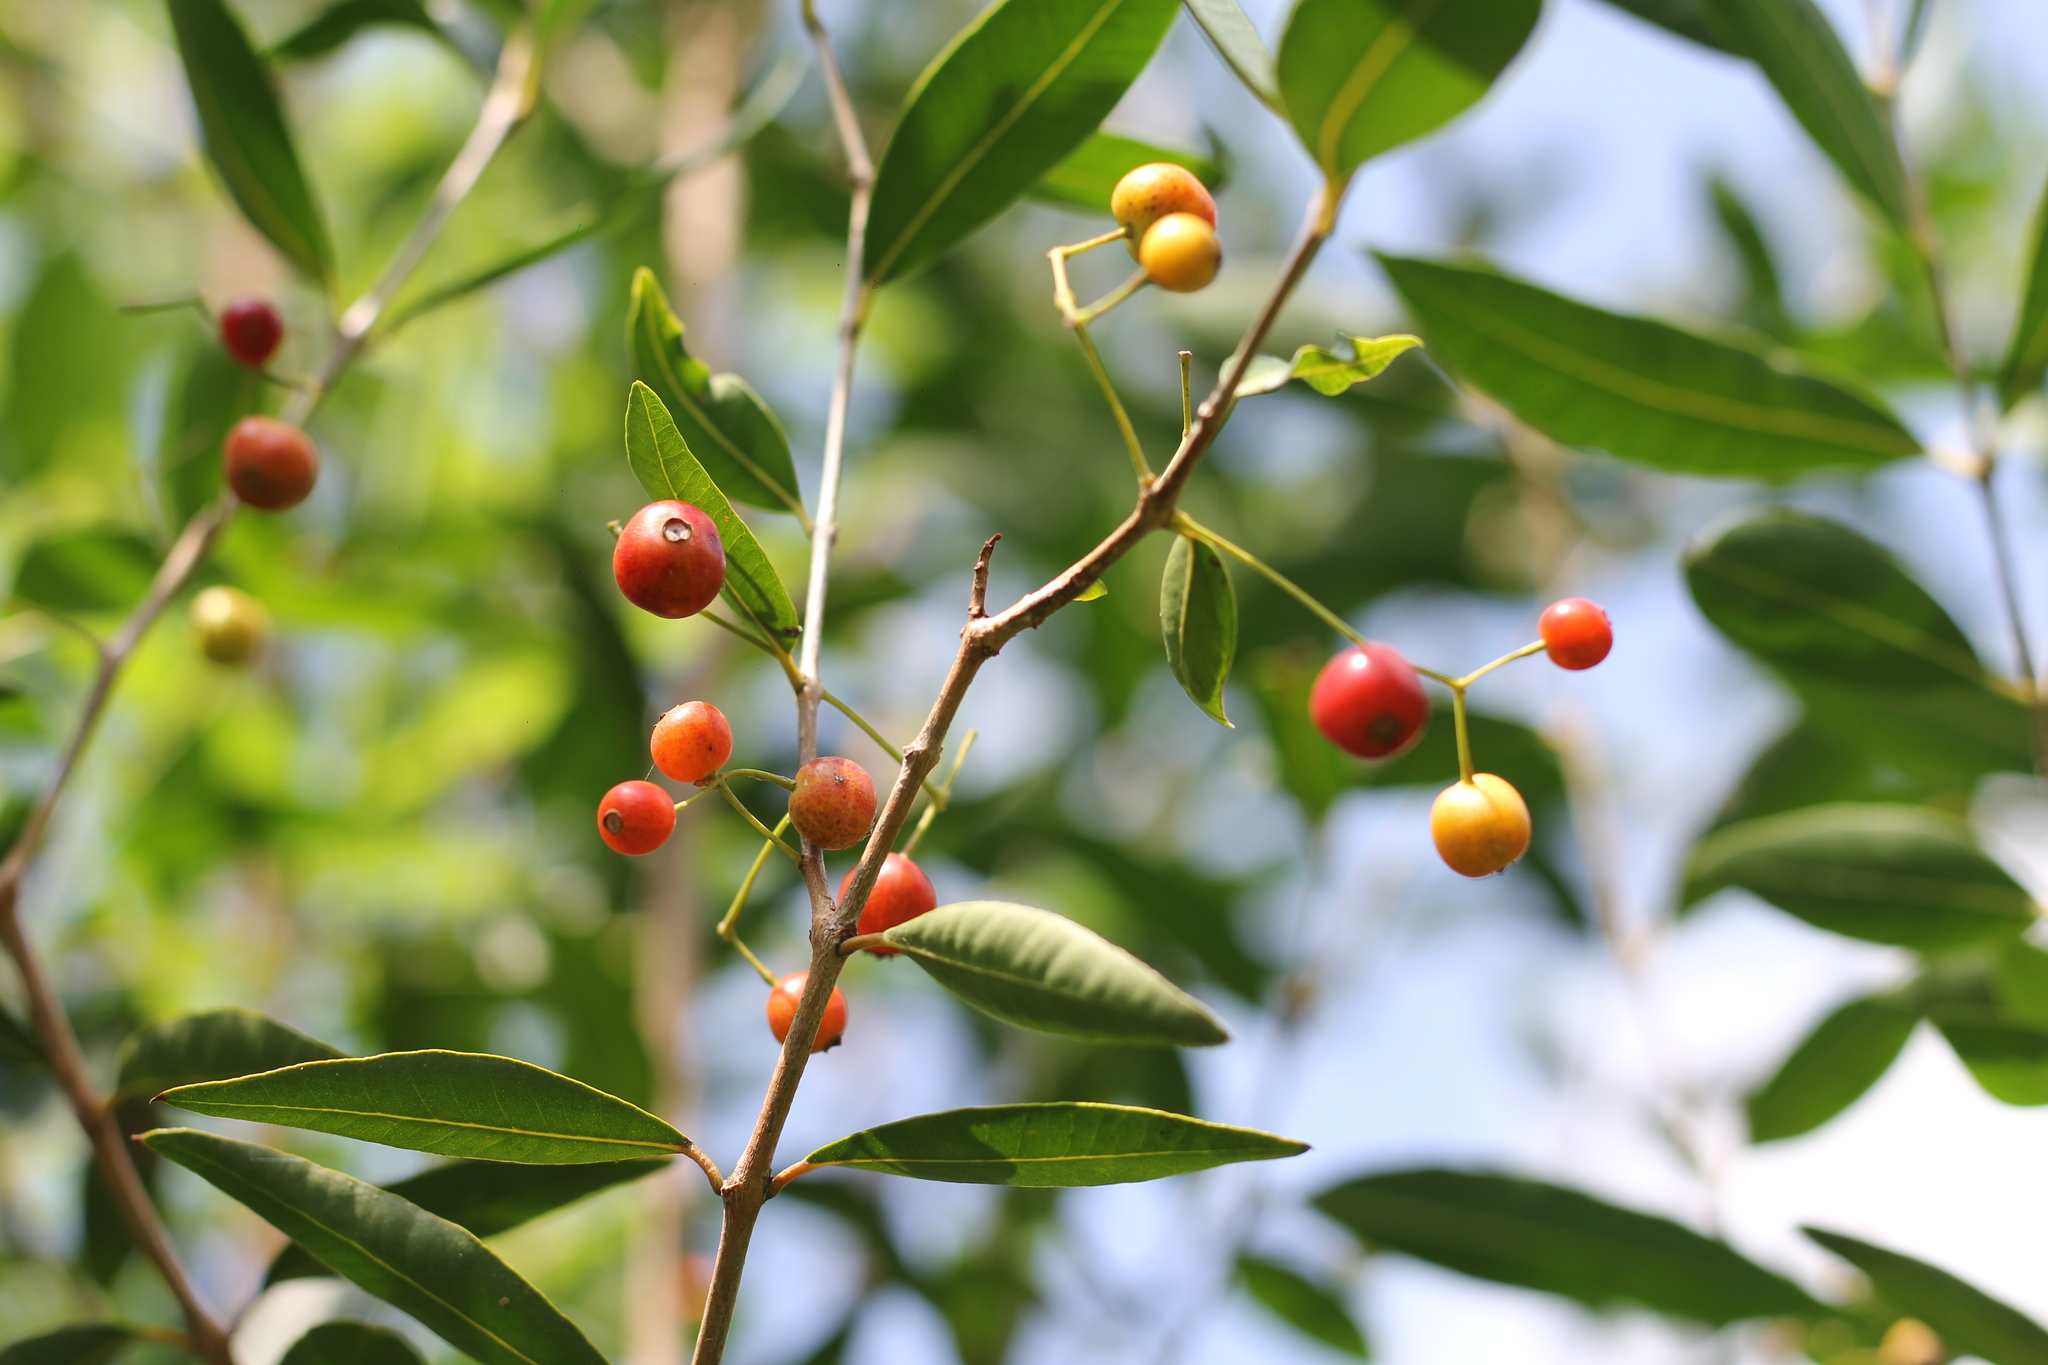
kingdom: Plantae
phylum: Tracheophyta
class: Magnoliopsida
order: Myrtales
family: Myrtaceae
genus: Blepharocalyx
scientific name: Blepharocalyx salicifolius
